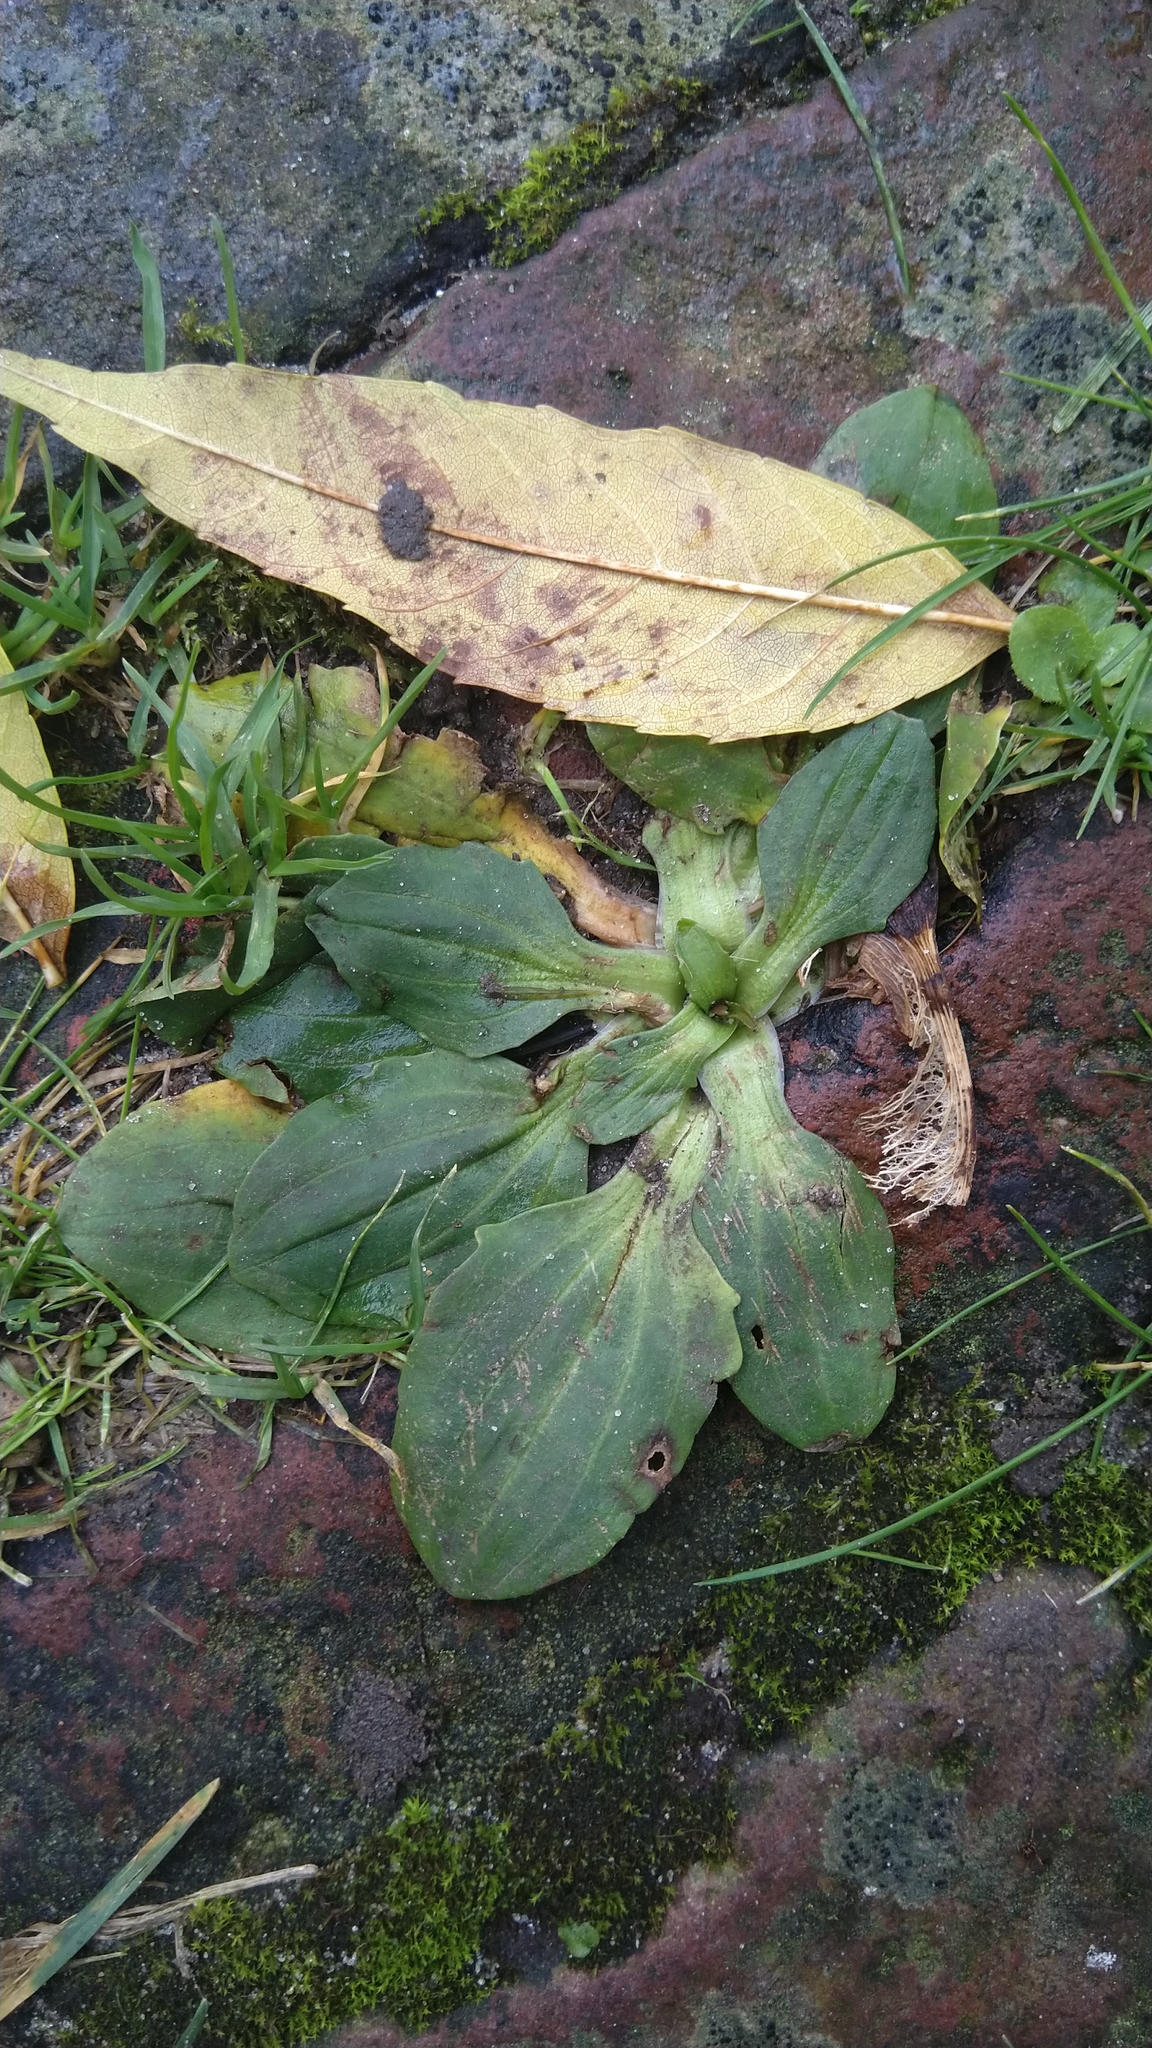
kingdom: Plantae
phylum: Tracheophyta
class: Magnoliopsida
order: Lamiales
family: Plantaginaceae
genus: Plantago
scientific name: Plantago major
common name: Common plantain
